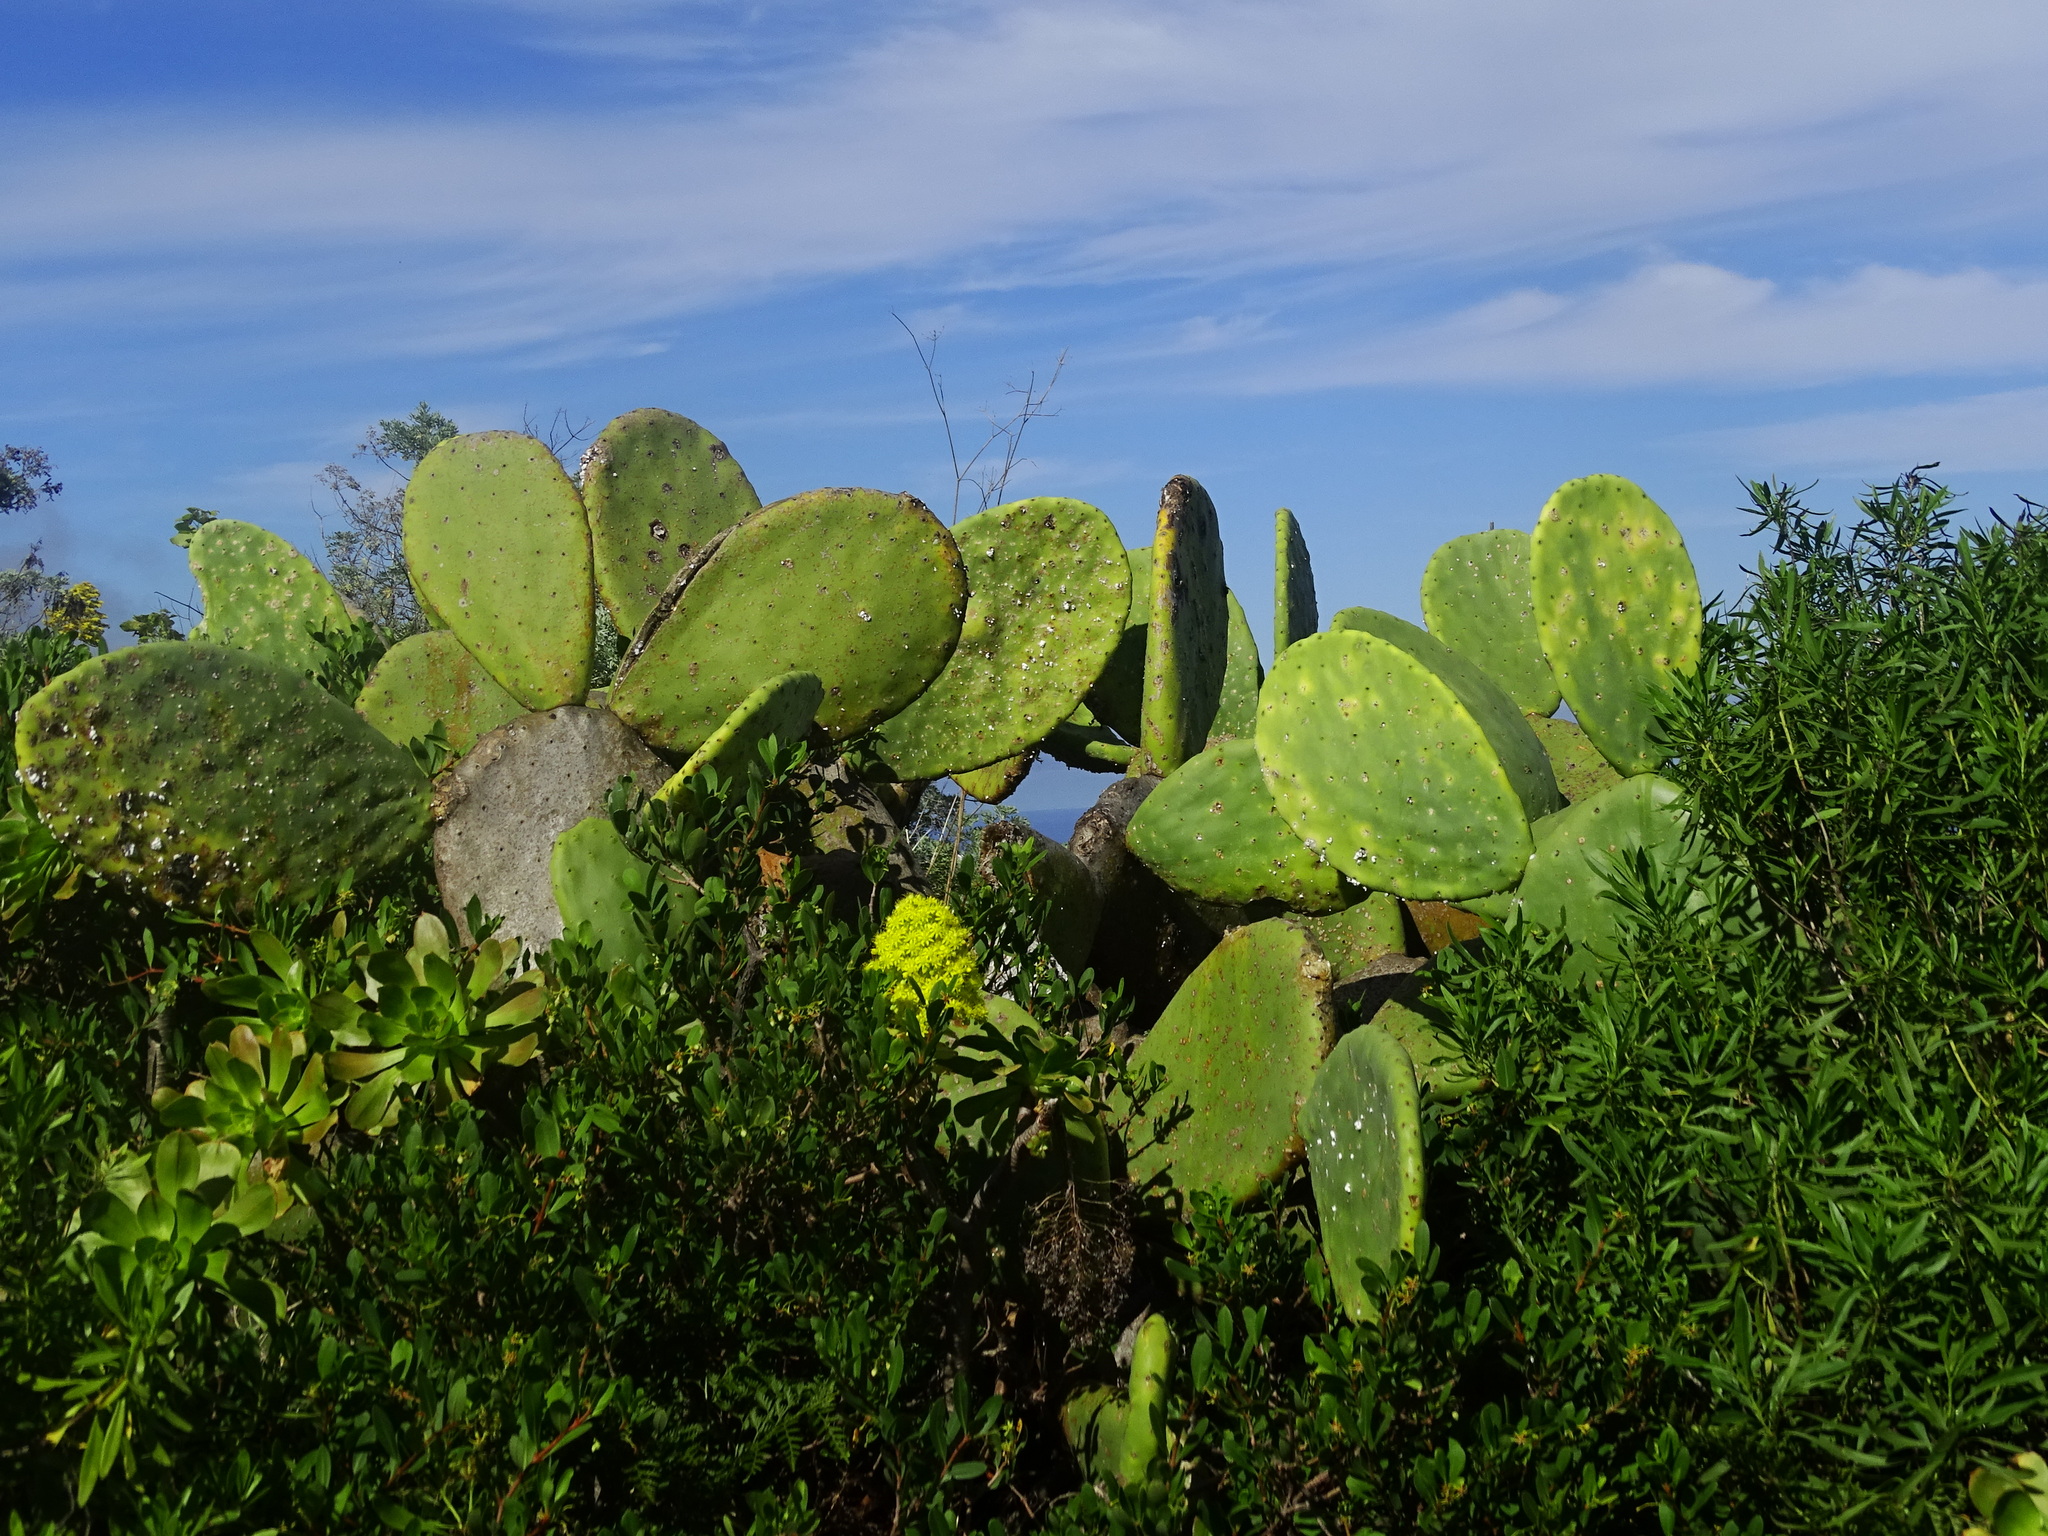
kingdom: Plantae
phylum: Tracheophyta
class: Magnoliopsida
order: Caryophyllales
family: Cactaceae
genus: Opuntia
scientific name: Opuntia ficus-indica
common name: Barbary fig
